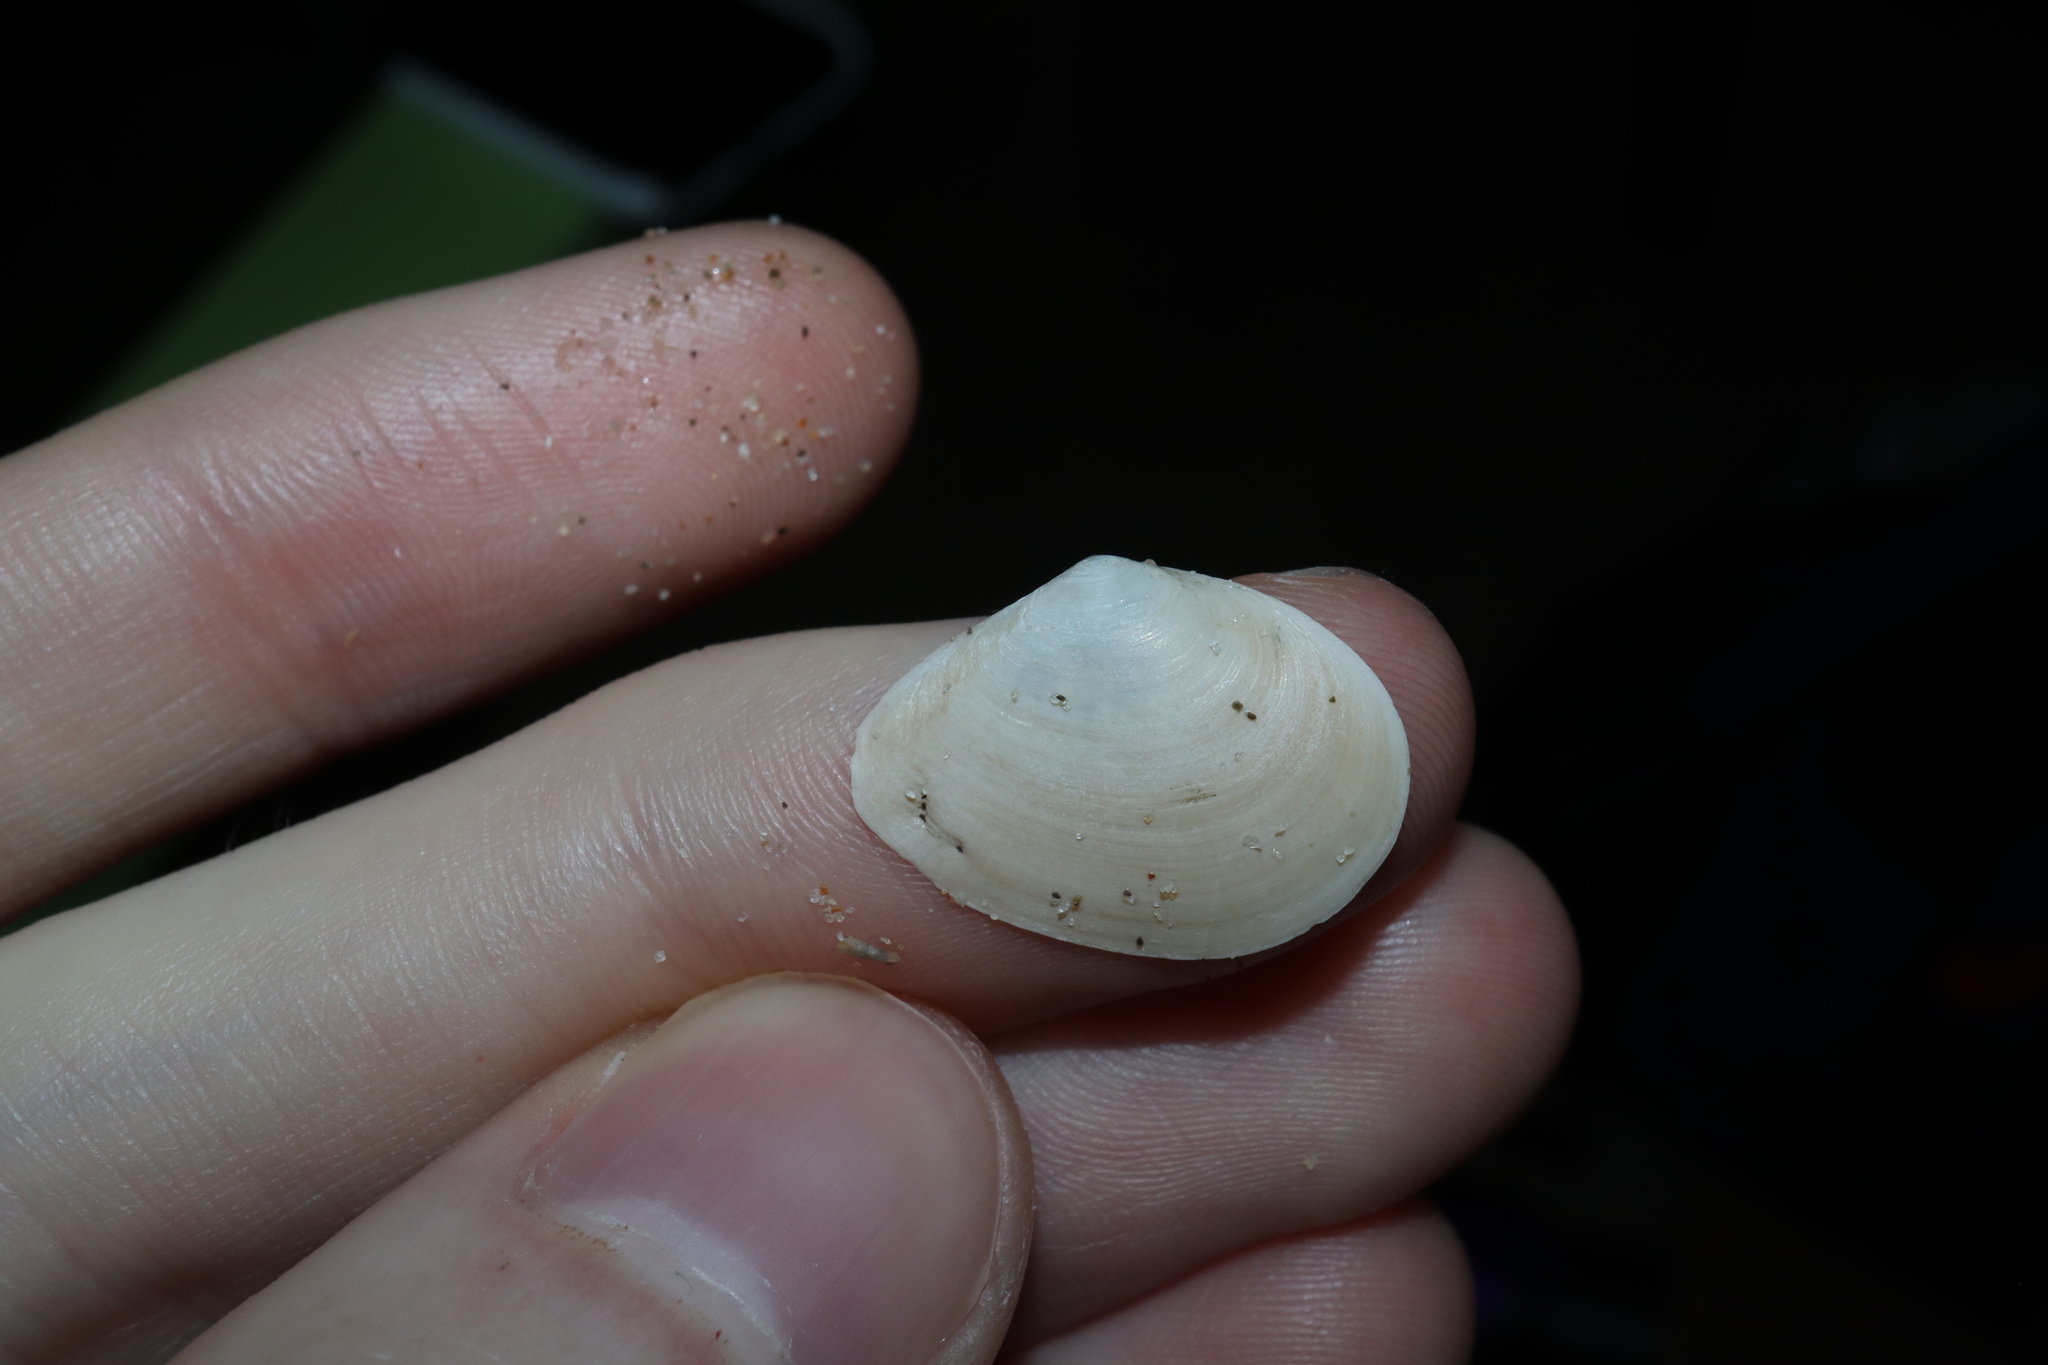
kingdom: Animalia
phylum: Mollusca
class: Bivalvia
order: Cardiida
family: Tellinidae
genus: Macomona
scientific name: Macomona deltoidalis
